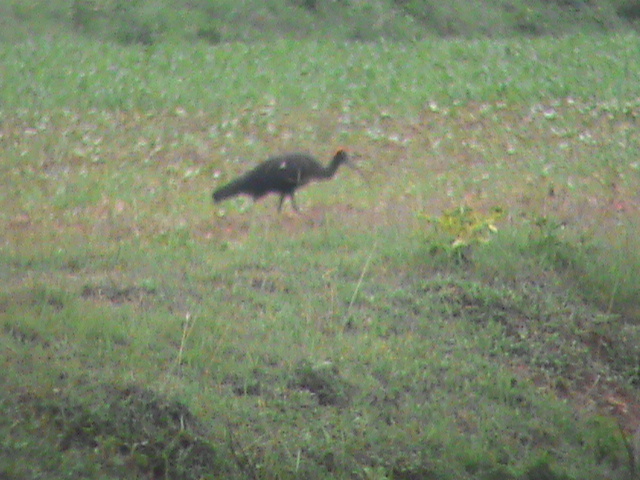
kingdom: Animalia
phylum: Chordata
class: Aves
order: Pelecaniformes
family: Threskiornithidae
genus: Pseudibis
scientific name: Pseudibis papillosa
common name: Red-naped ibis
